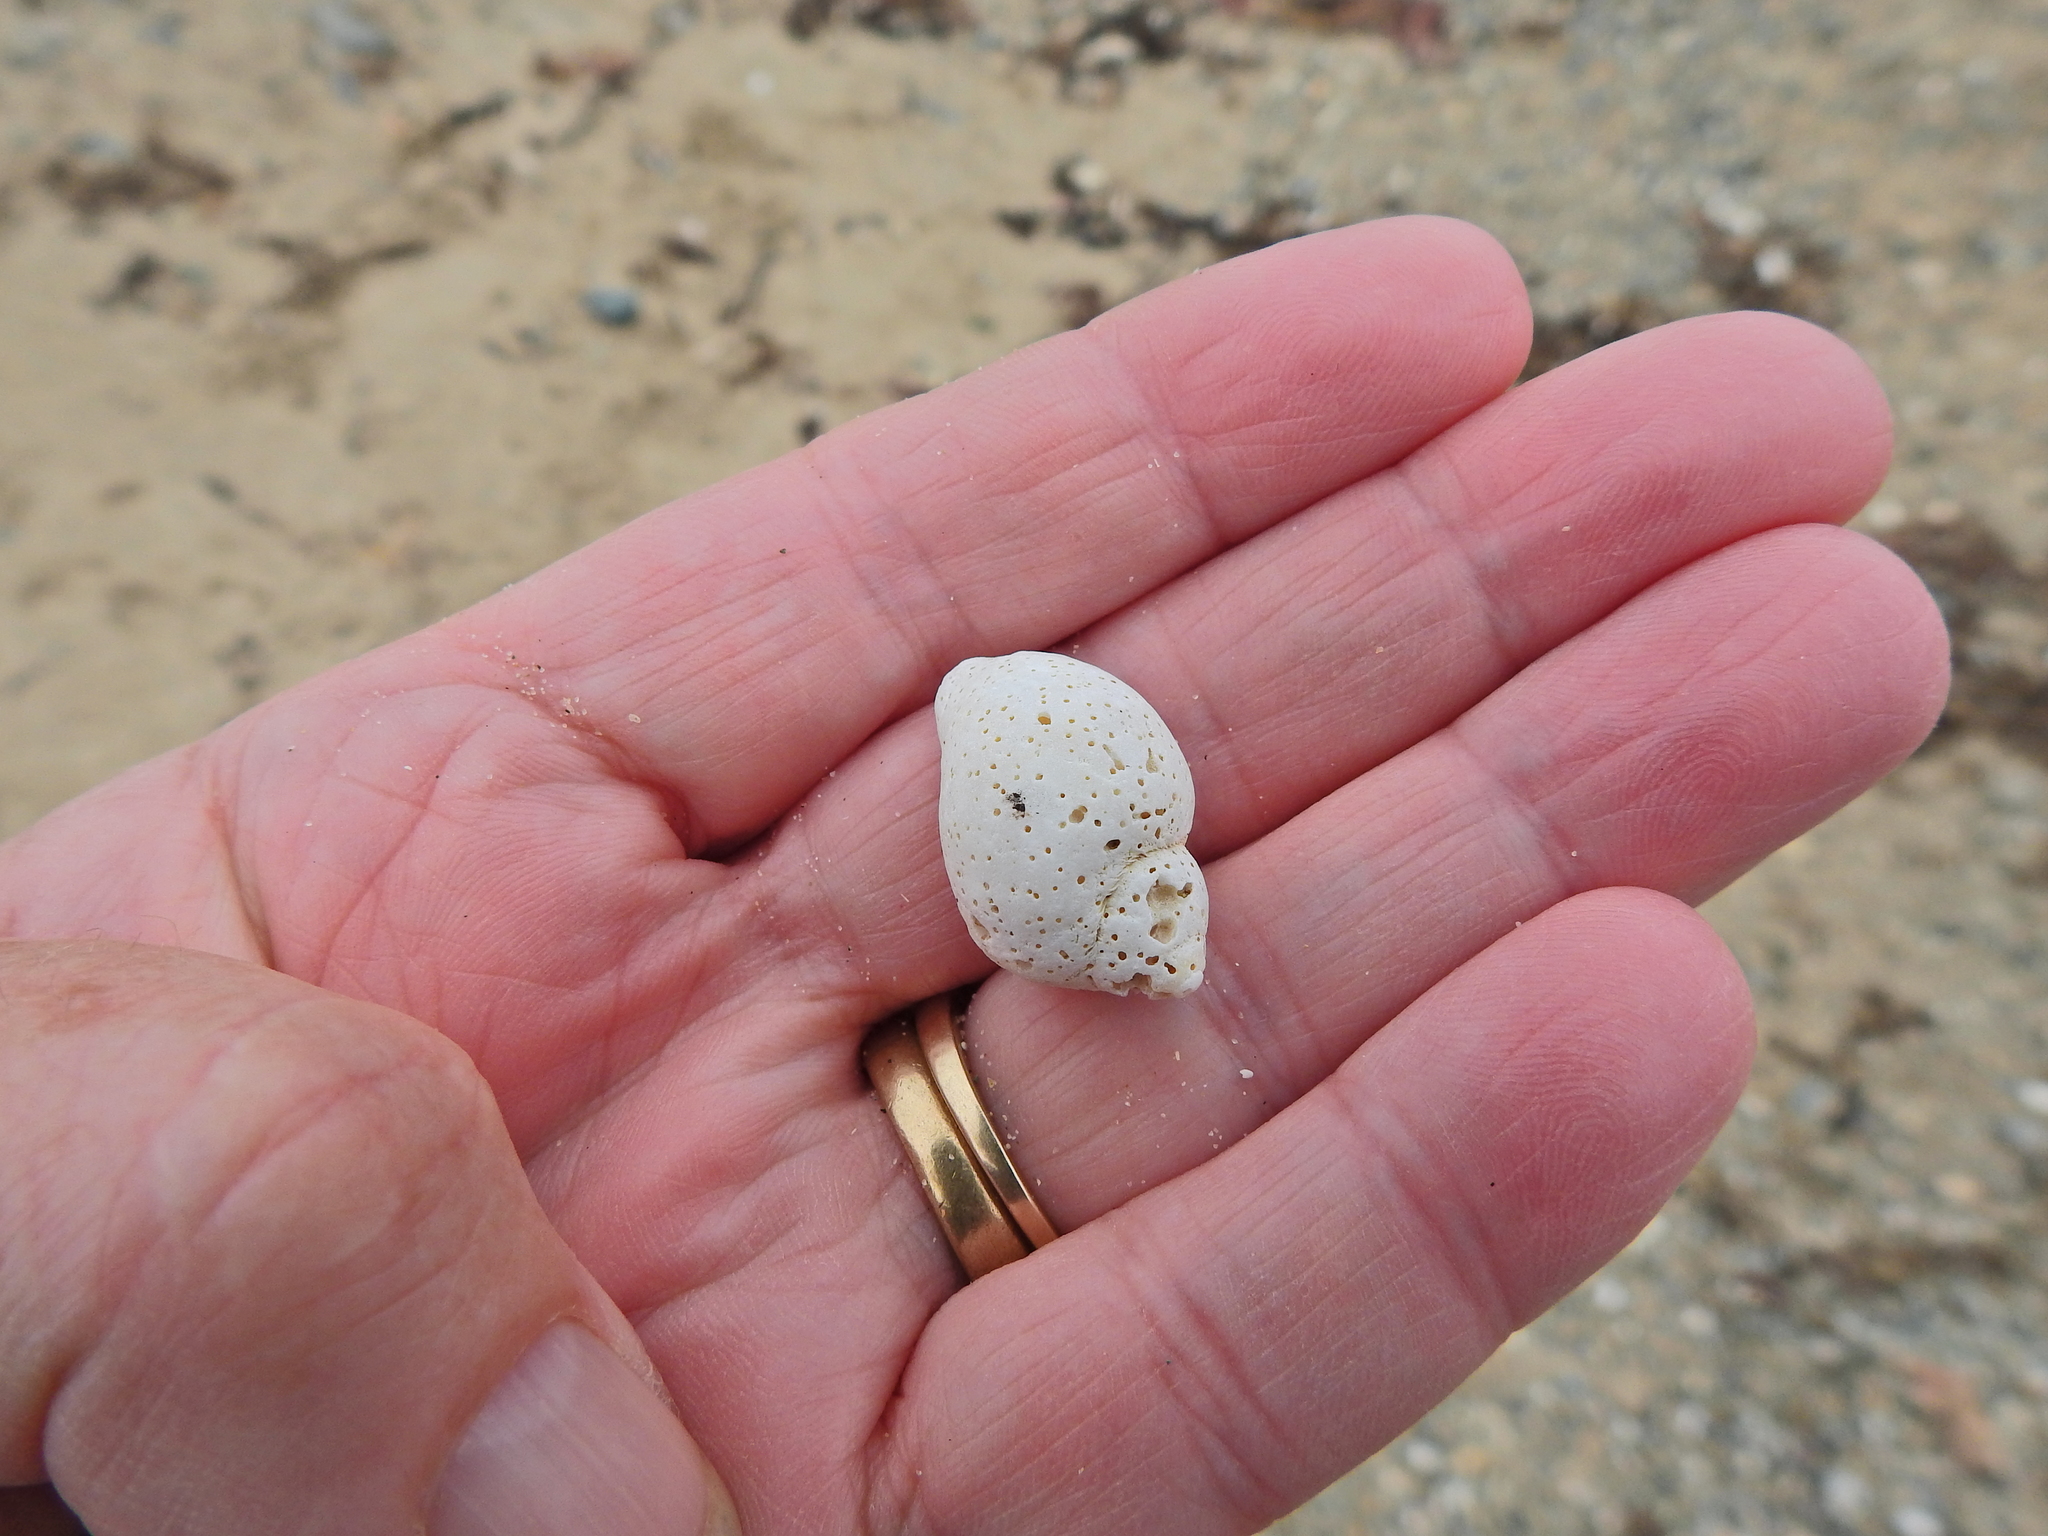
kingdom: Animalia
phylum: Mollusca
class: Gastropoda
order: Neogastropoda
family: Muricidae
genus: Nucella
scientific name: Nucella lapillus
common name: Dog whelk
